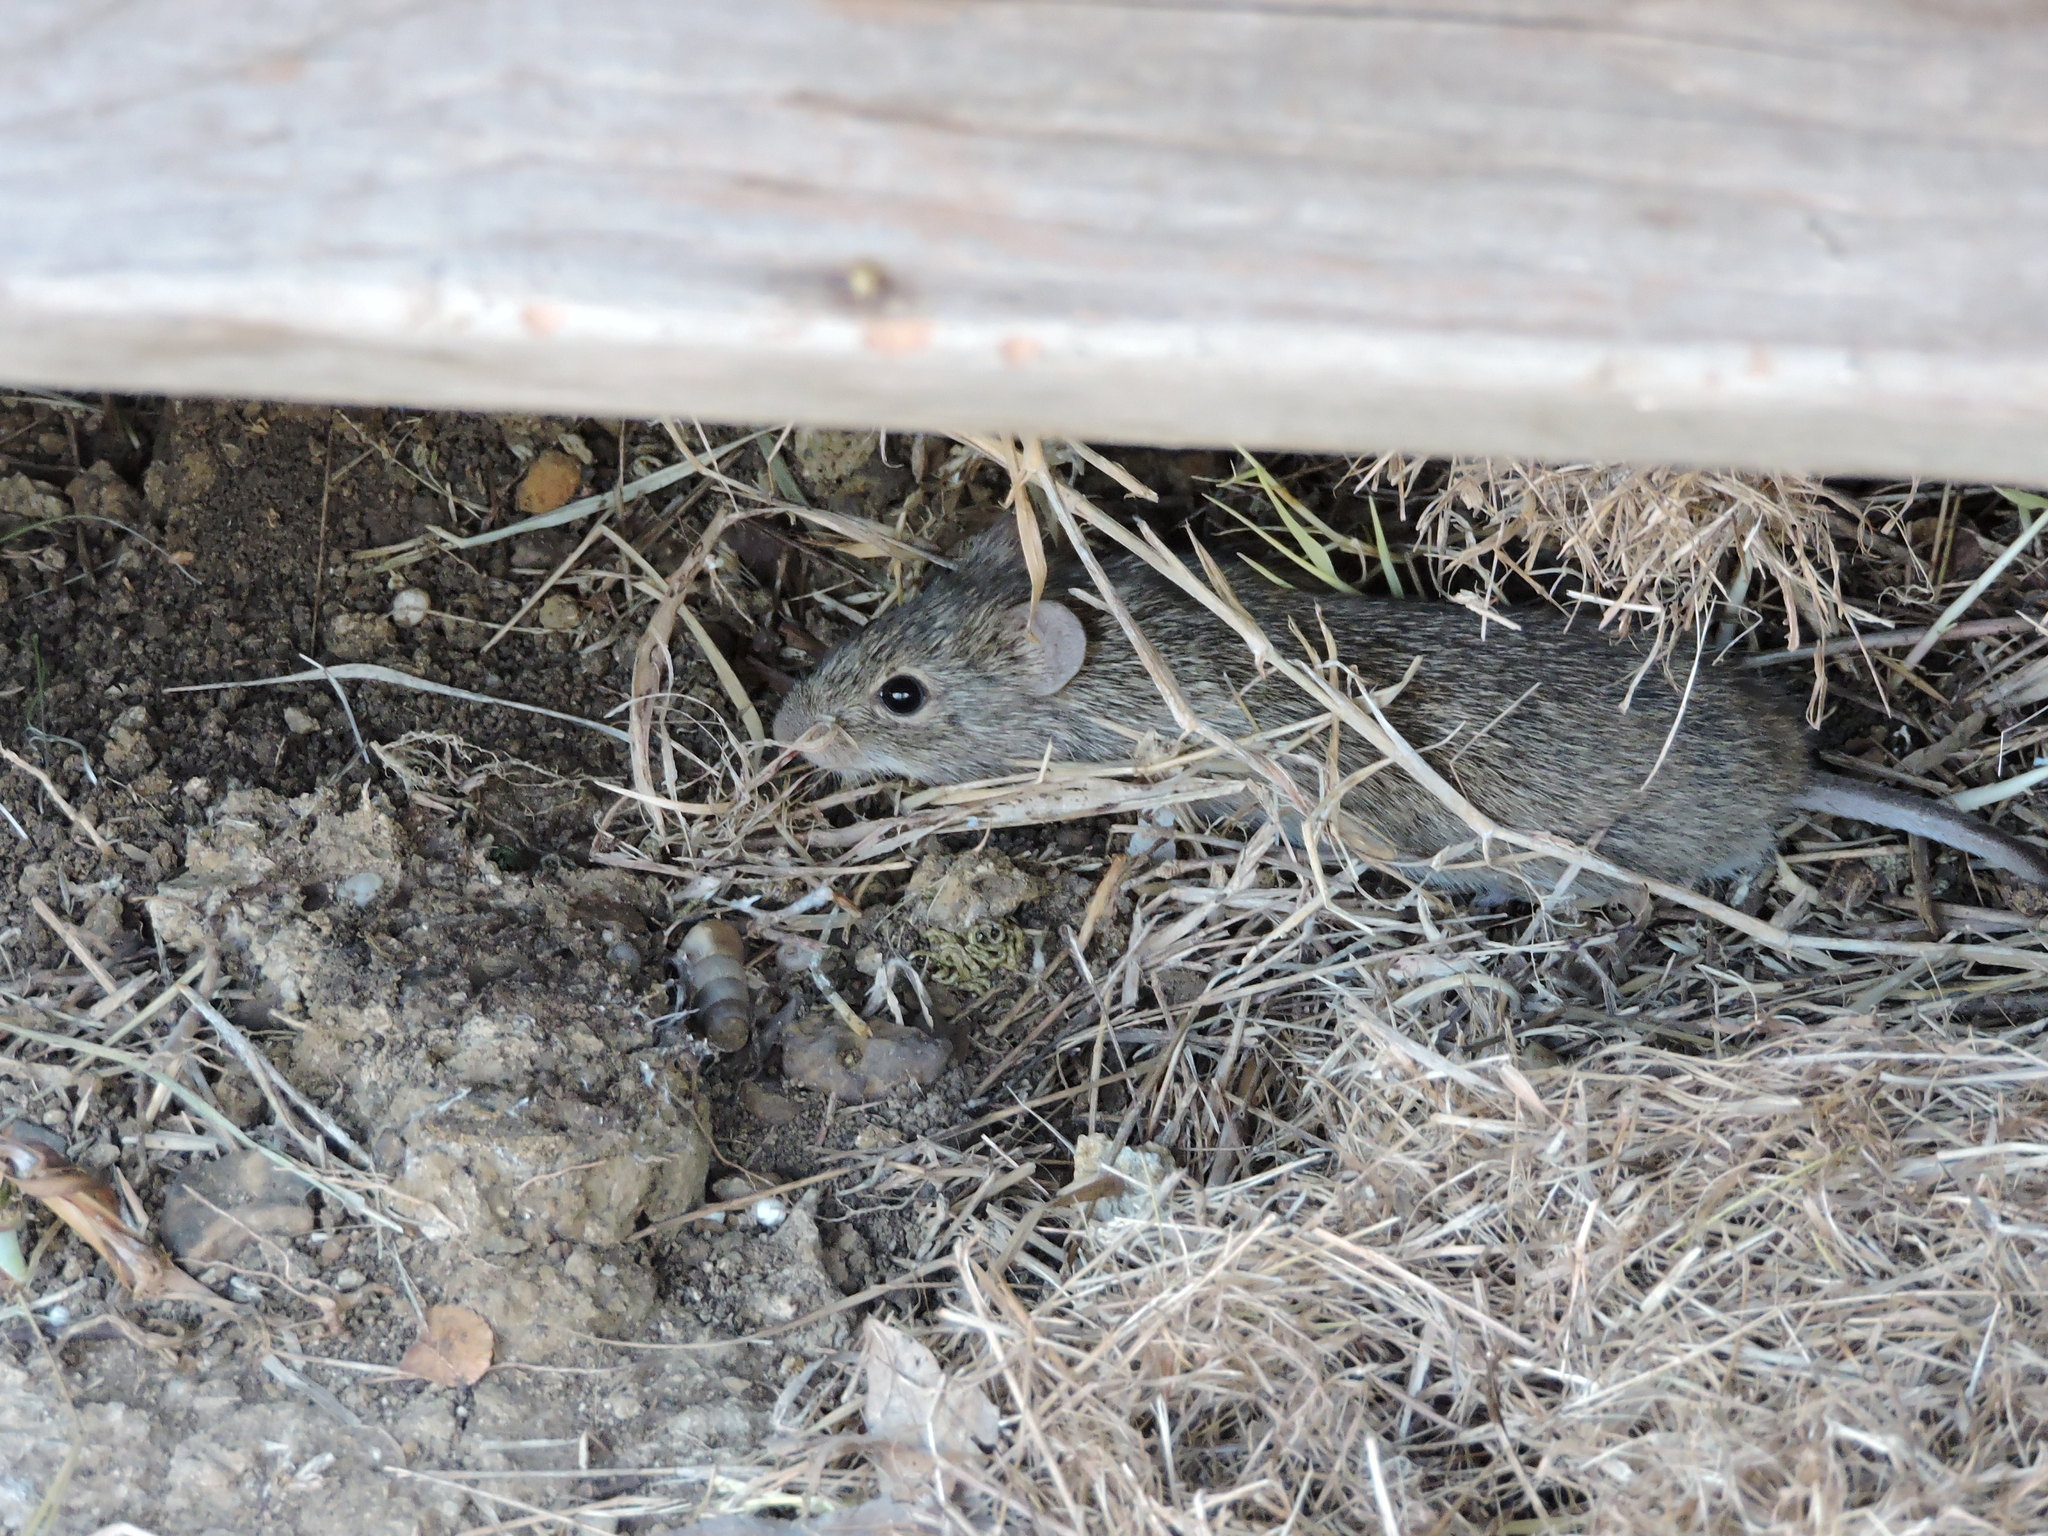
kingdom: Animalia
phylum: Chordata
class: Mammalia
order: Rodentia
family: Cricetidae
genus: Sigmodon
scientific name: Sigmodon hispidus
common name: Hispid cotton rat
